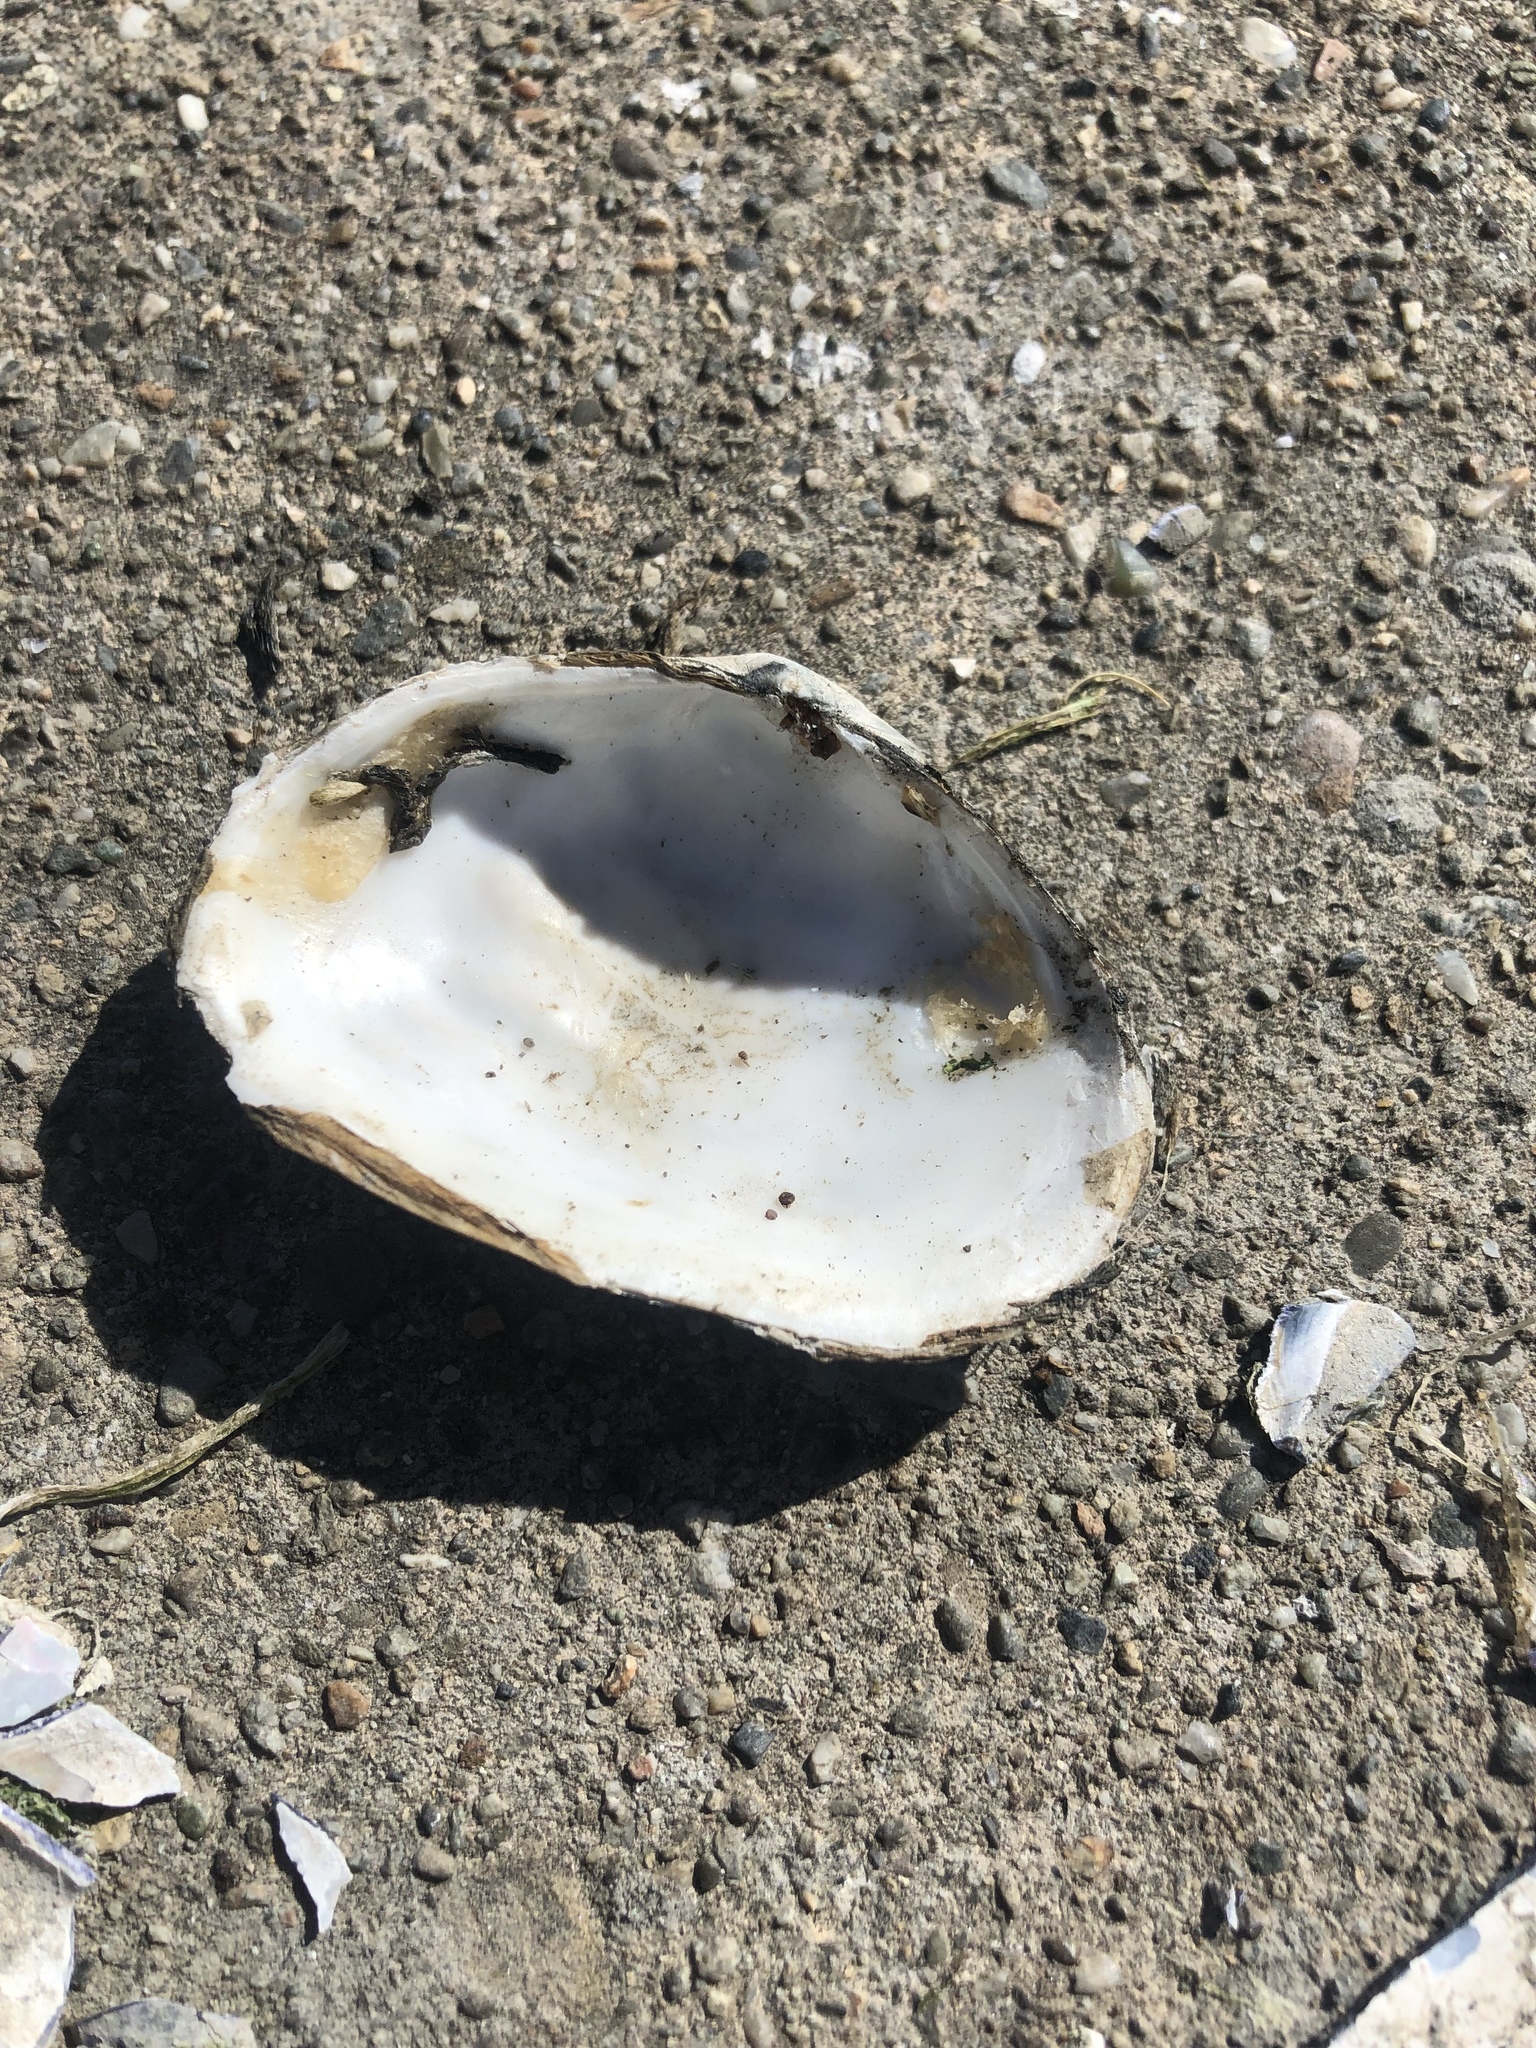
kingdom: Animalia
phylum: Mollusca
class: Bivalvia
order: Myida
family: Myidae
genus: Mya
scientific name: Mya arenaria
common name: Soft-shelled clam
